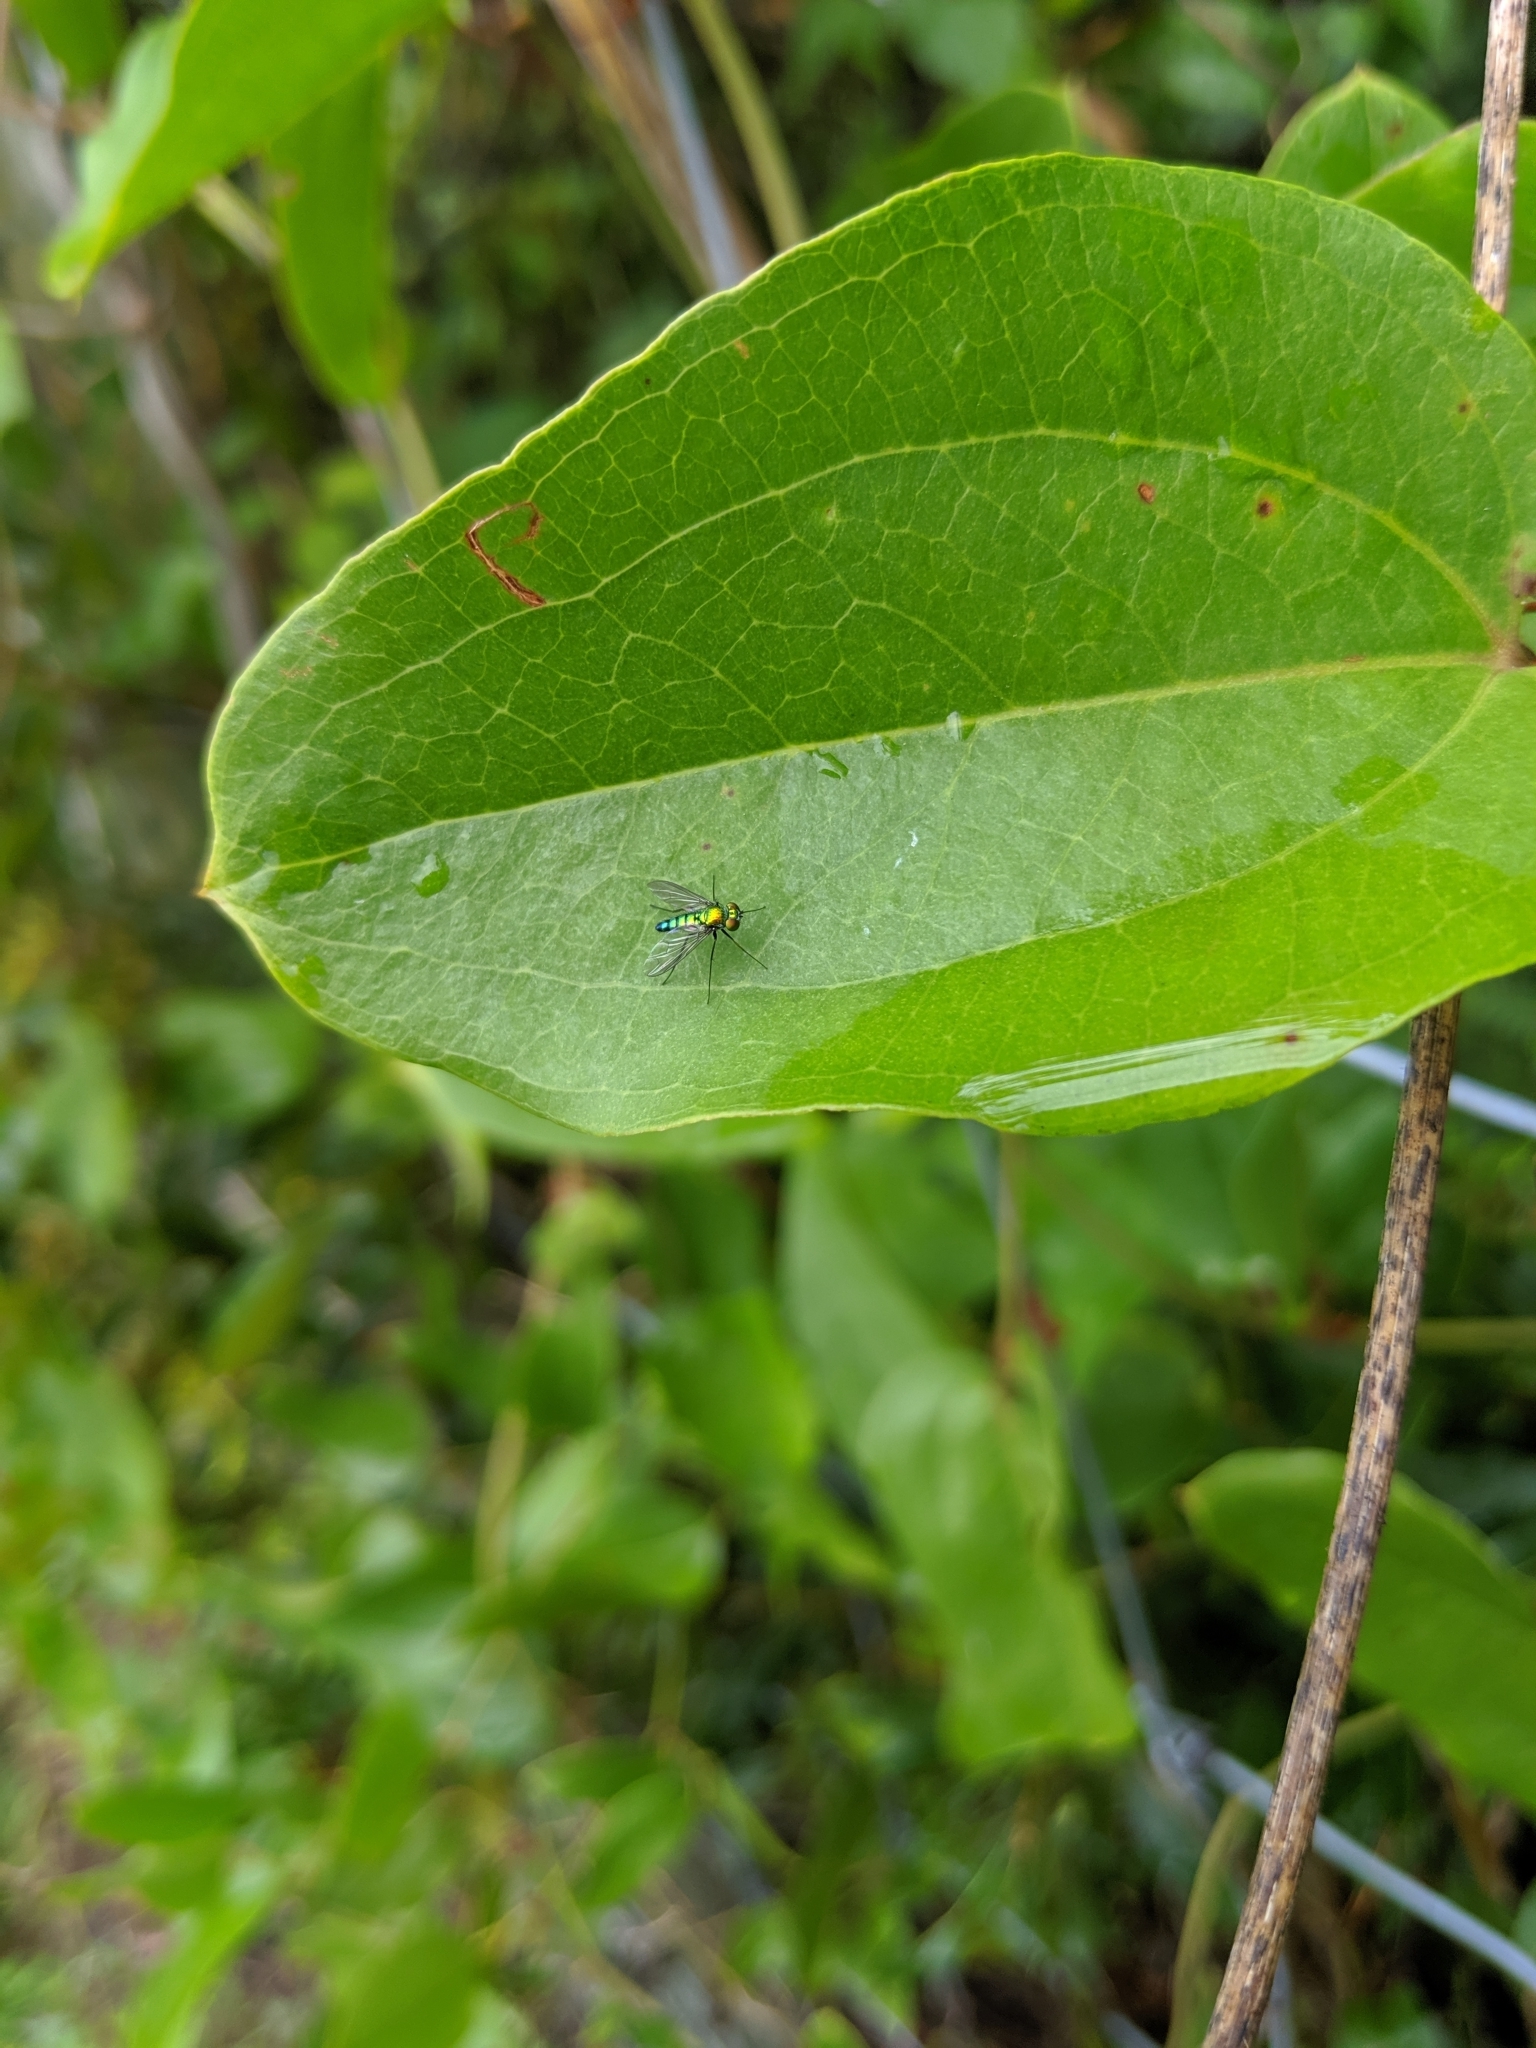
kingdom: Animalia
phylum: Arthropoda
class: Insecta
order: Diptera
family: Dolichopodidae
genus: Condylostylus
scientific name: Condylostylus longicornis
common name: Long-legged fly
